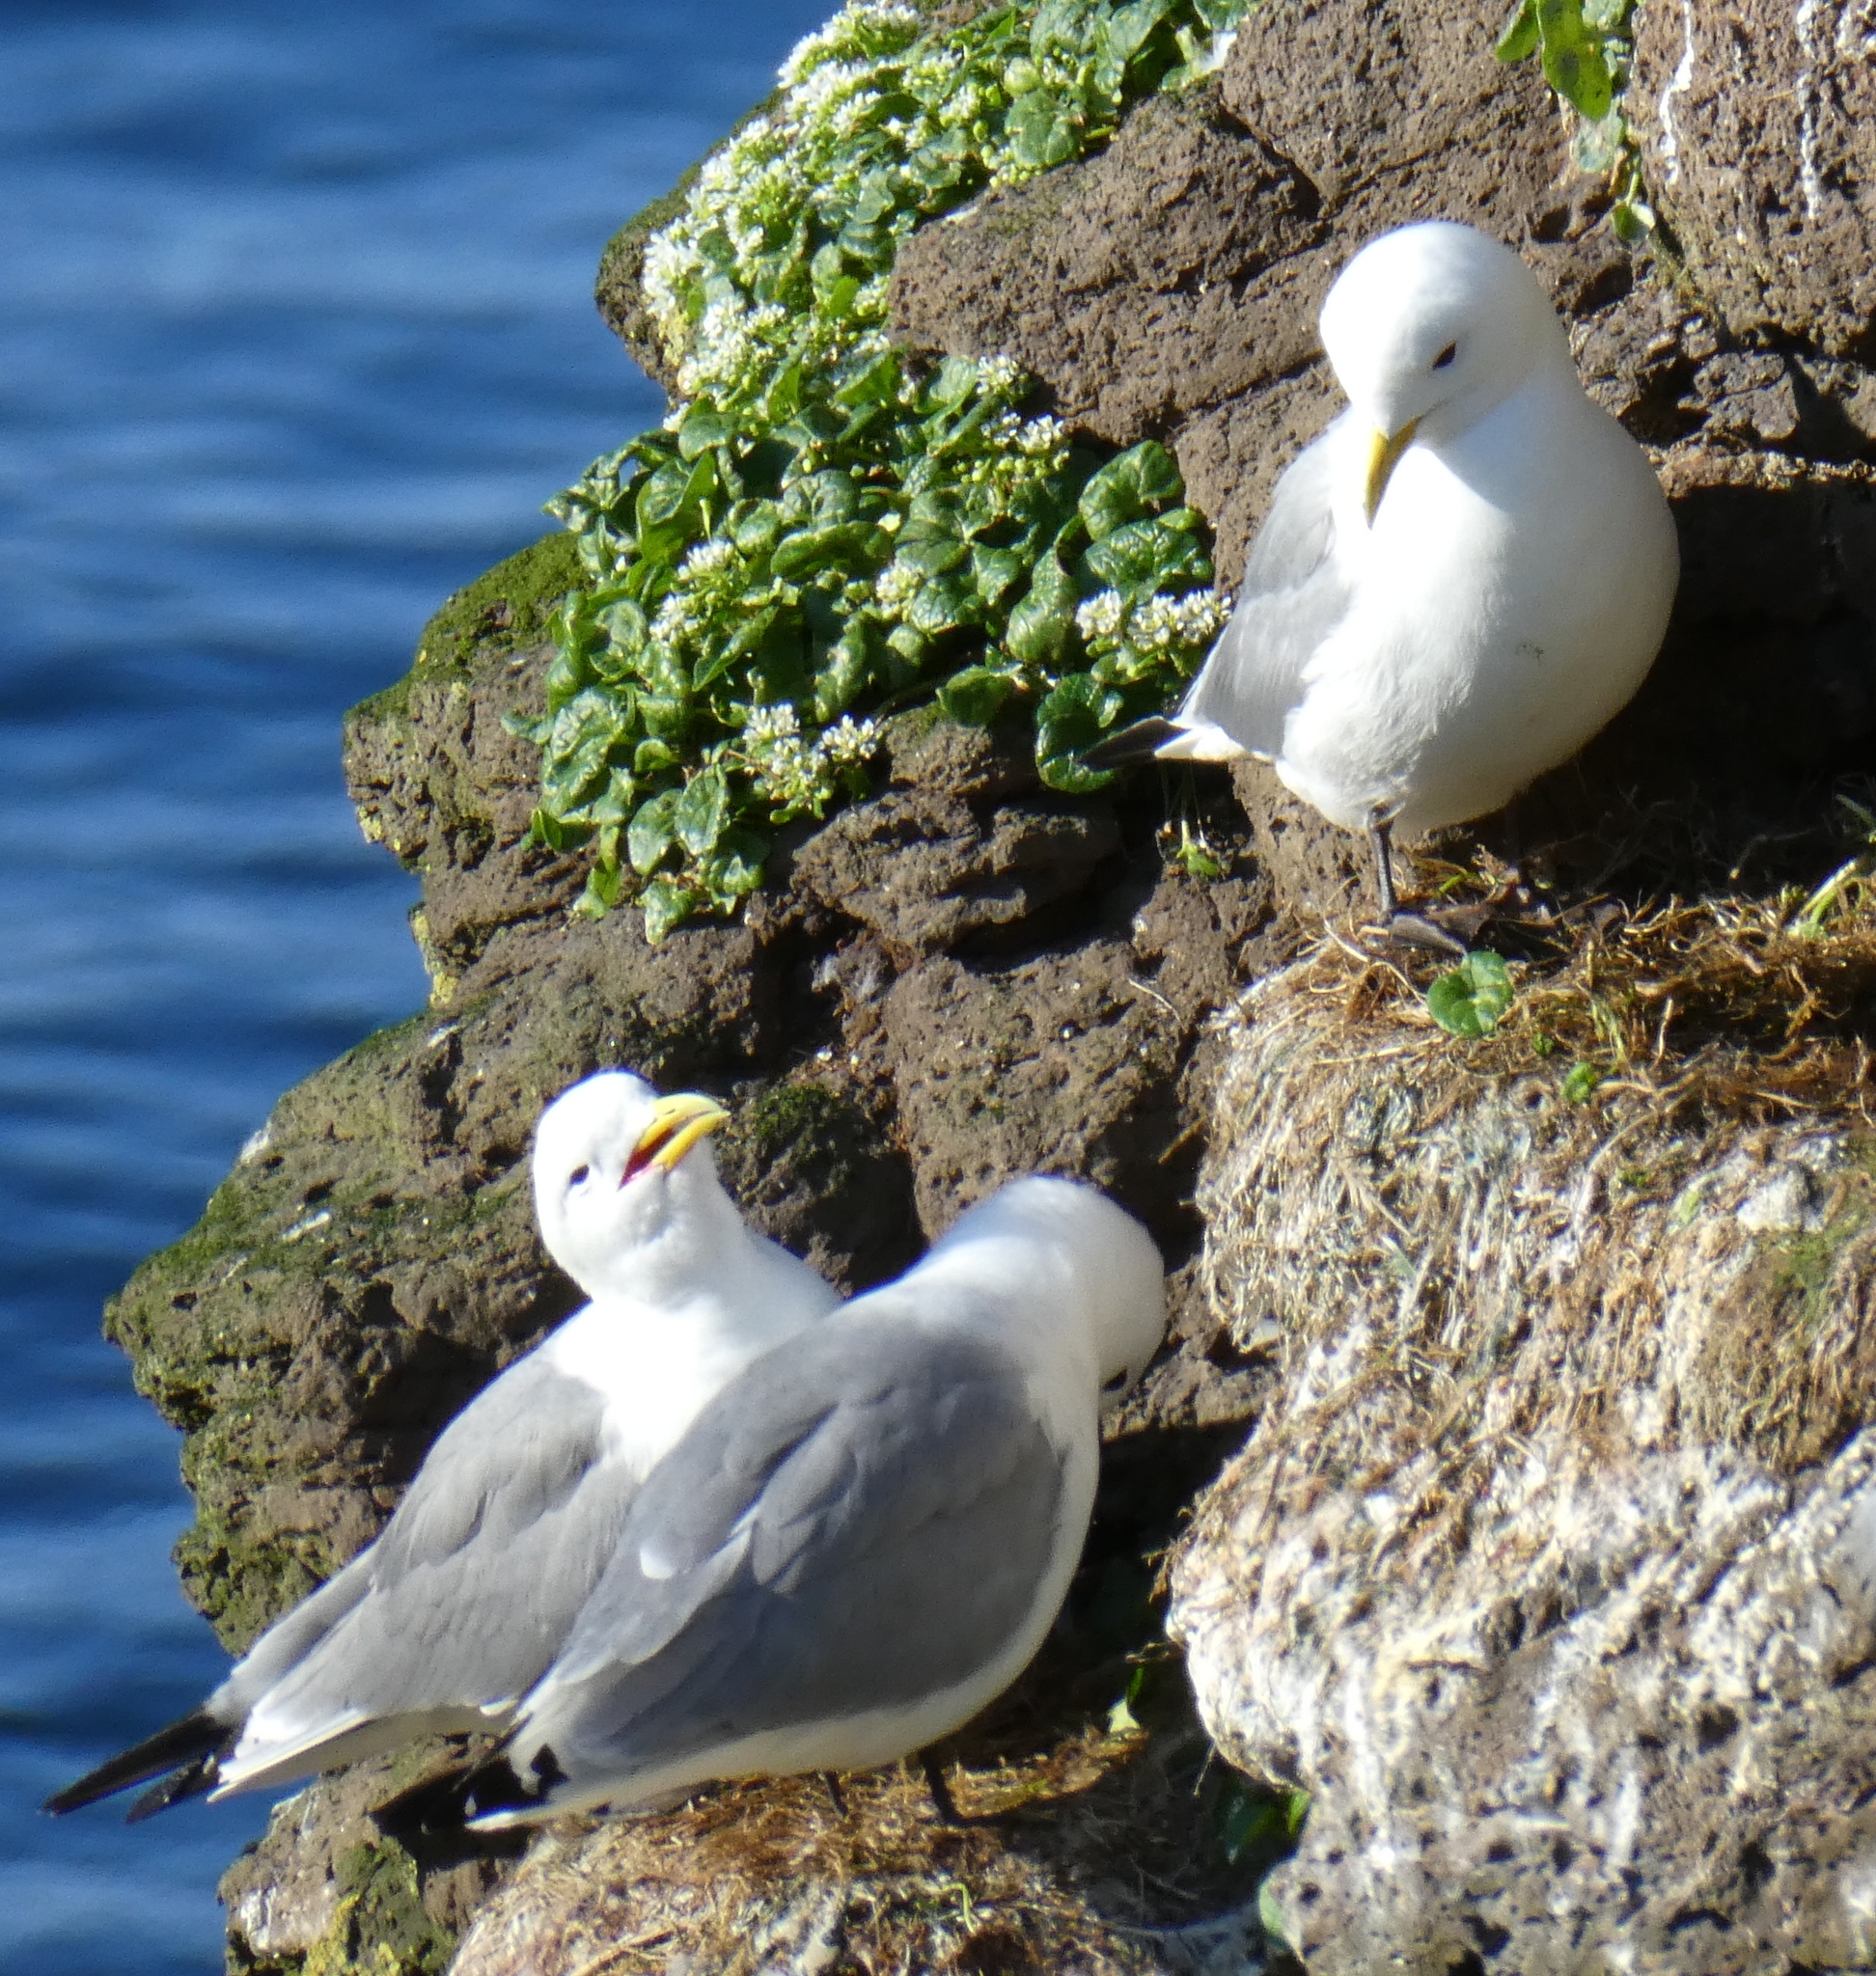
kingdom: Animalia
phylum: Chordata
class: Aves
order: Charadriiformes
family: Laridae
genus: Rissa
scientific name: Rissa tridactyla
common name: Black-legged kittiwake
